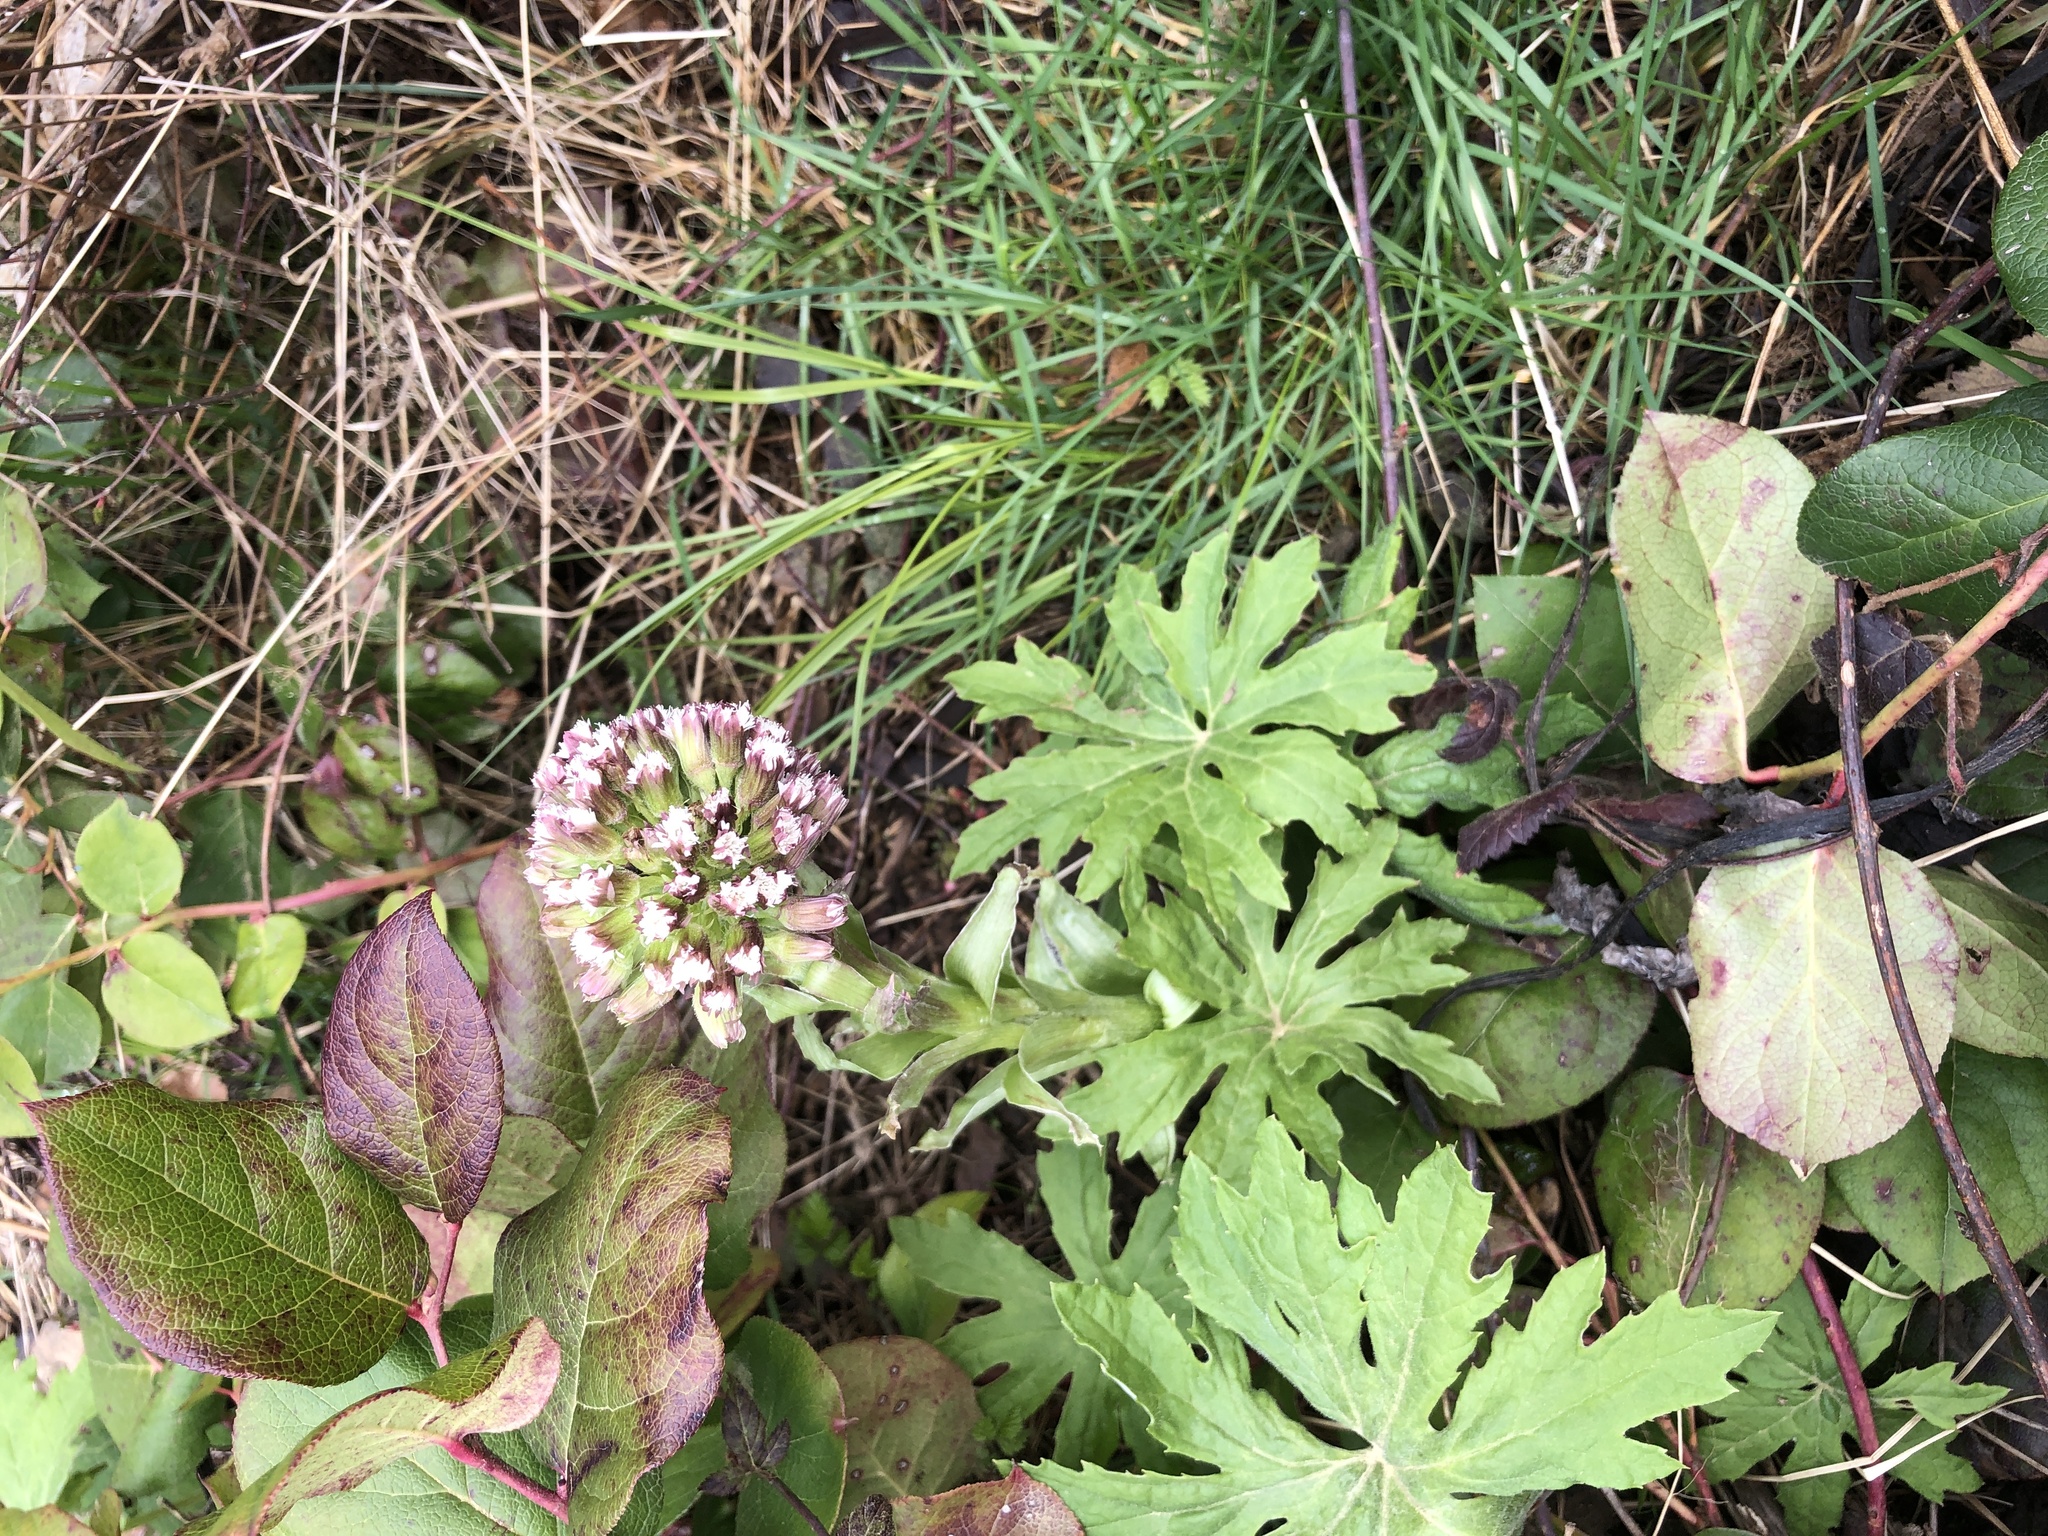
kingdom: Plantae
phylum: Tracheophyta
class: Magnoliopsida
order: Asterales
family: Asteraceae
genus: Petasites
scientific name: Petasites frigidus
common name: Arctic butterbur
